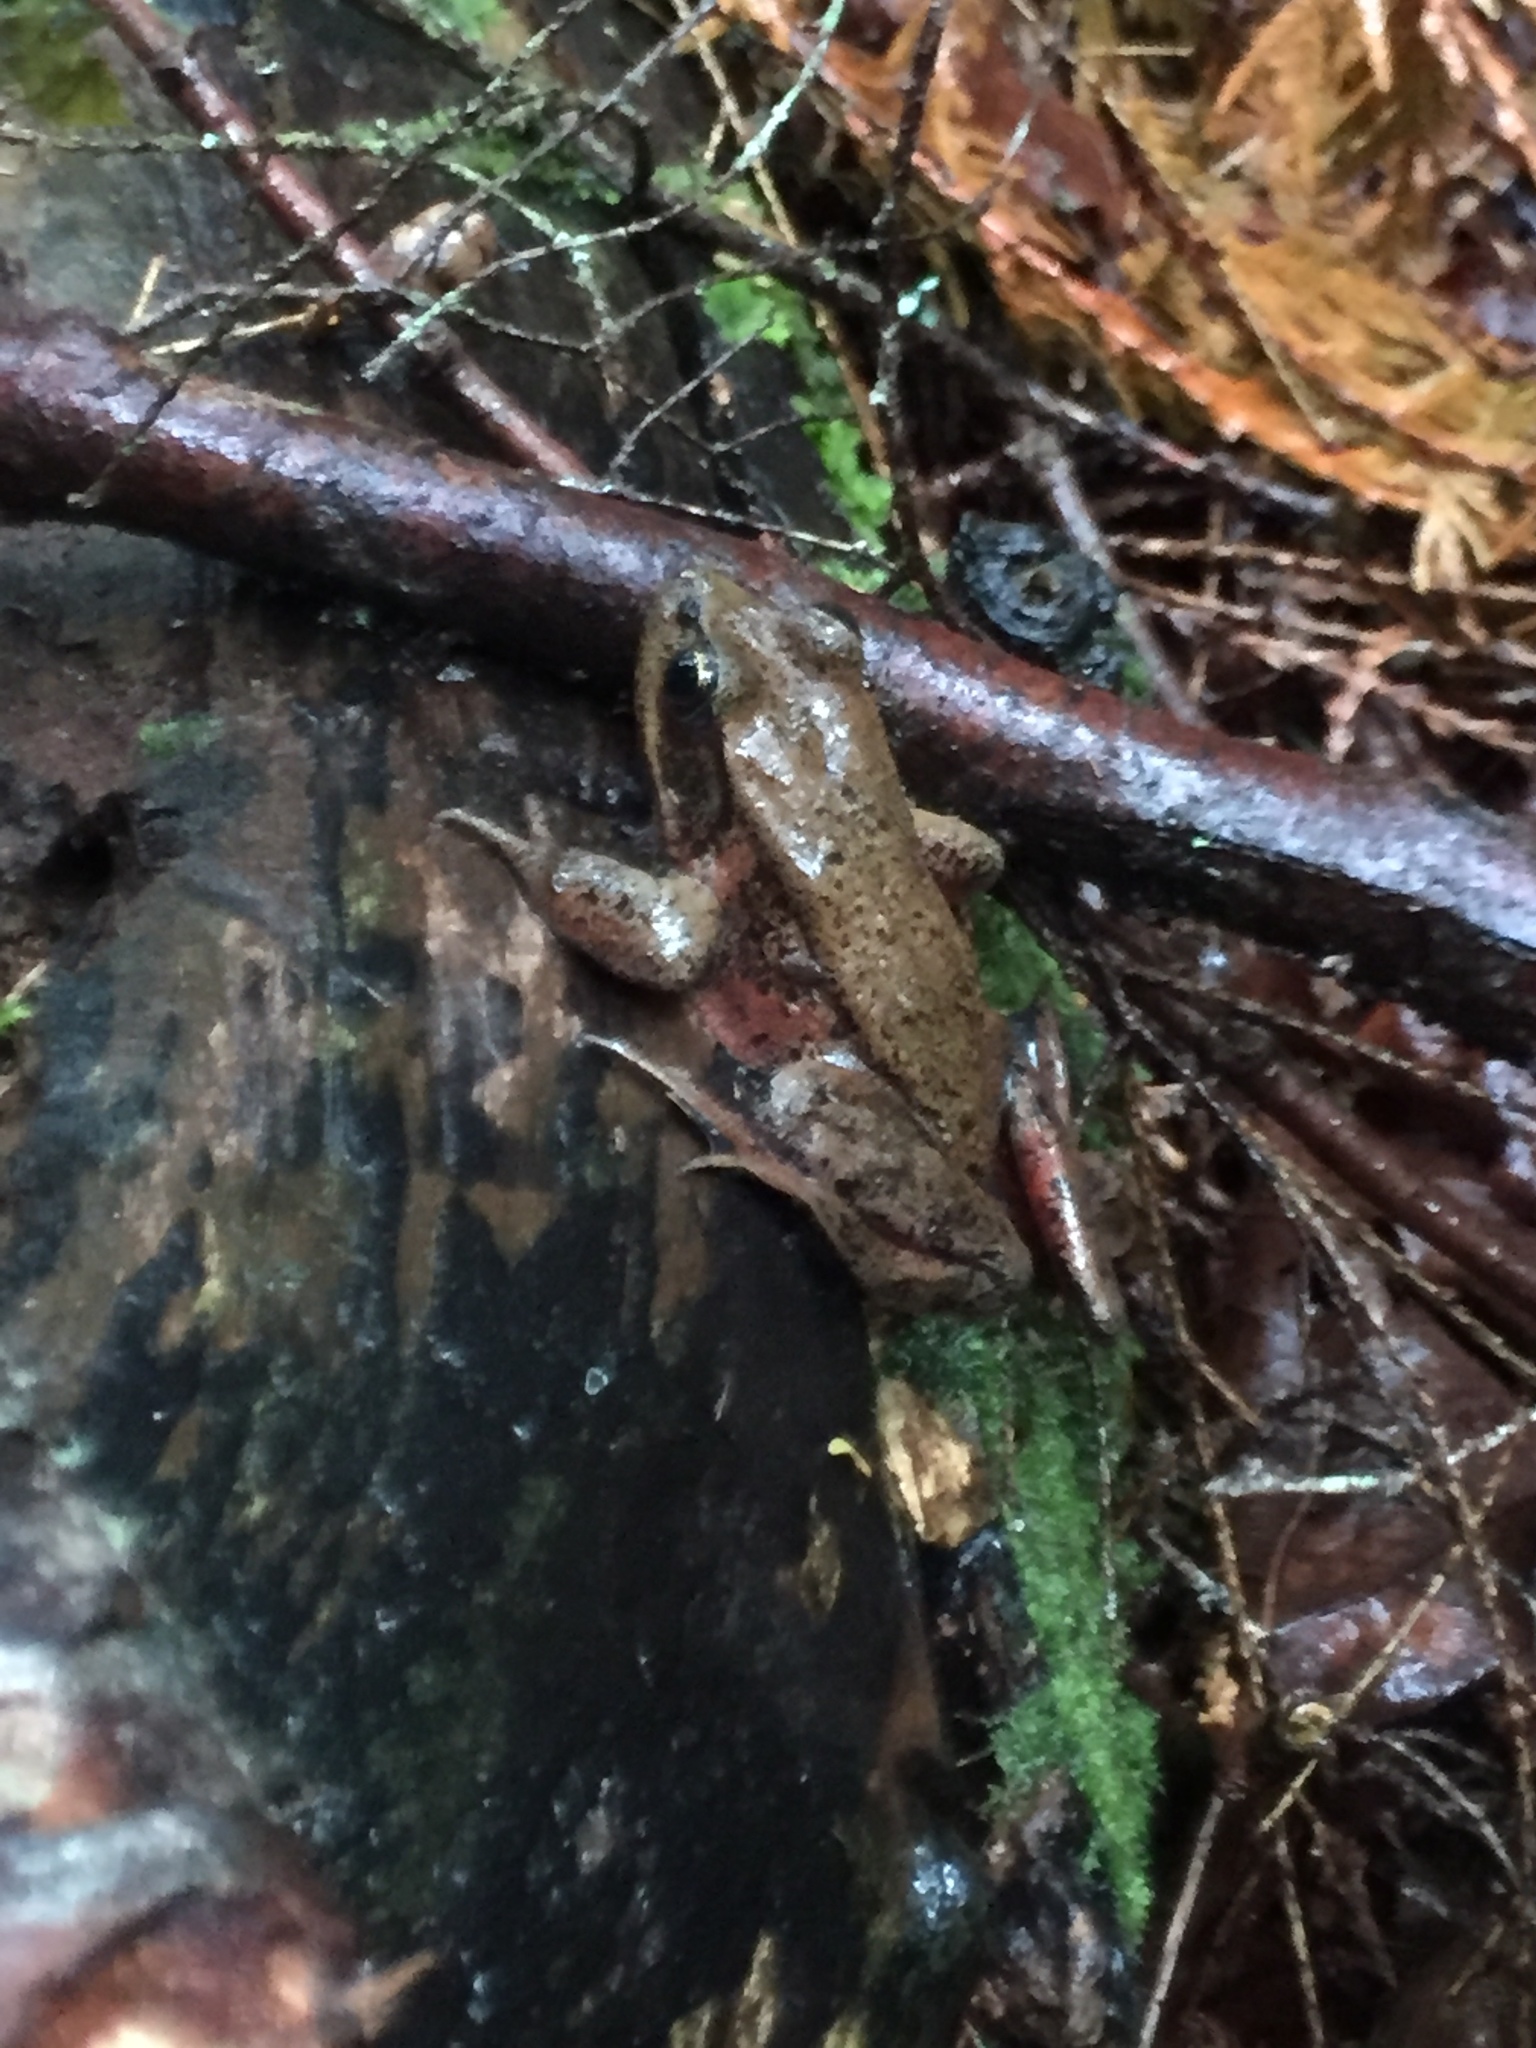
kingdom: Animalia
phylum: Chordata
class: Amphibia
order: Anura
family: Ranidae
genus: Rana
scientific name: Rana aurora
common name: Red-legged frog
